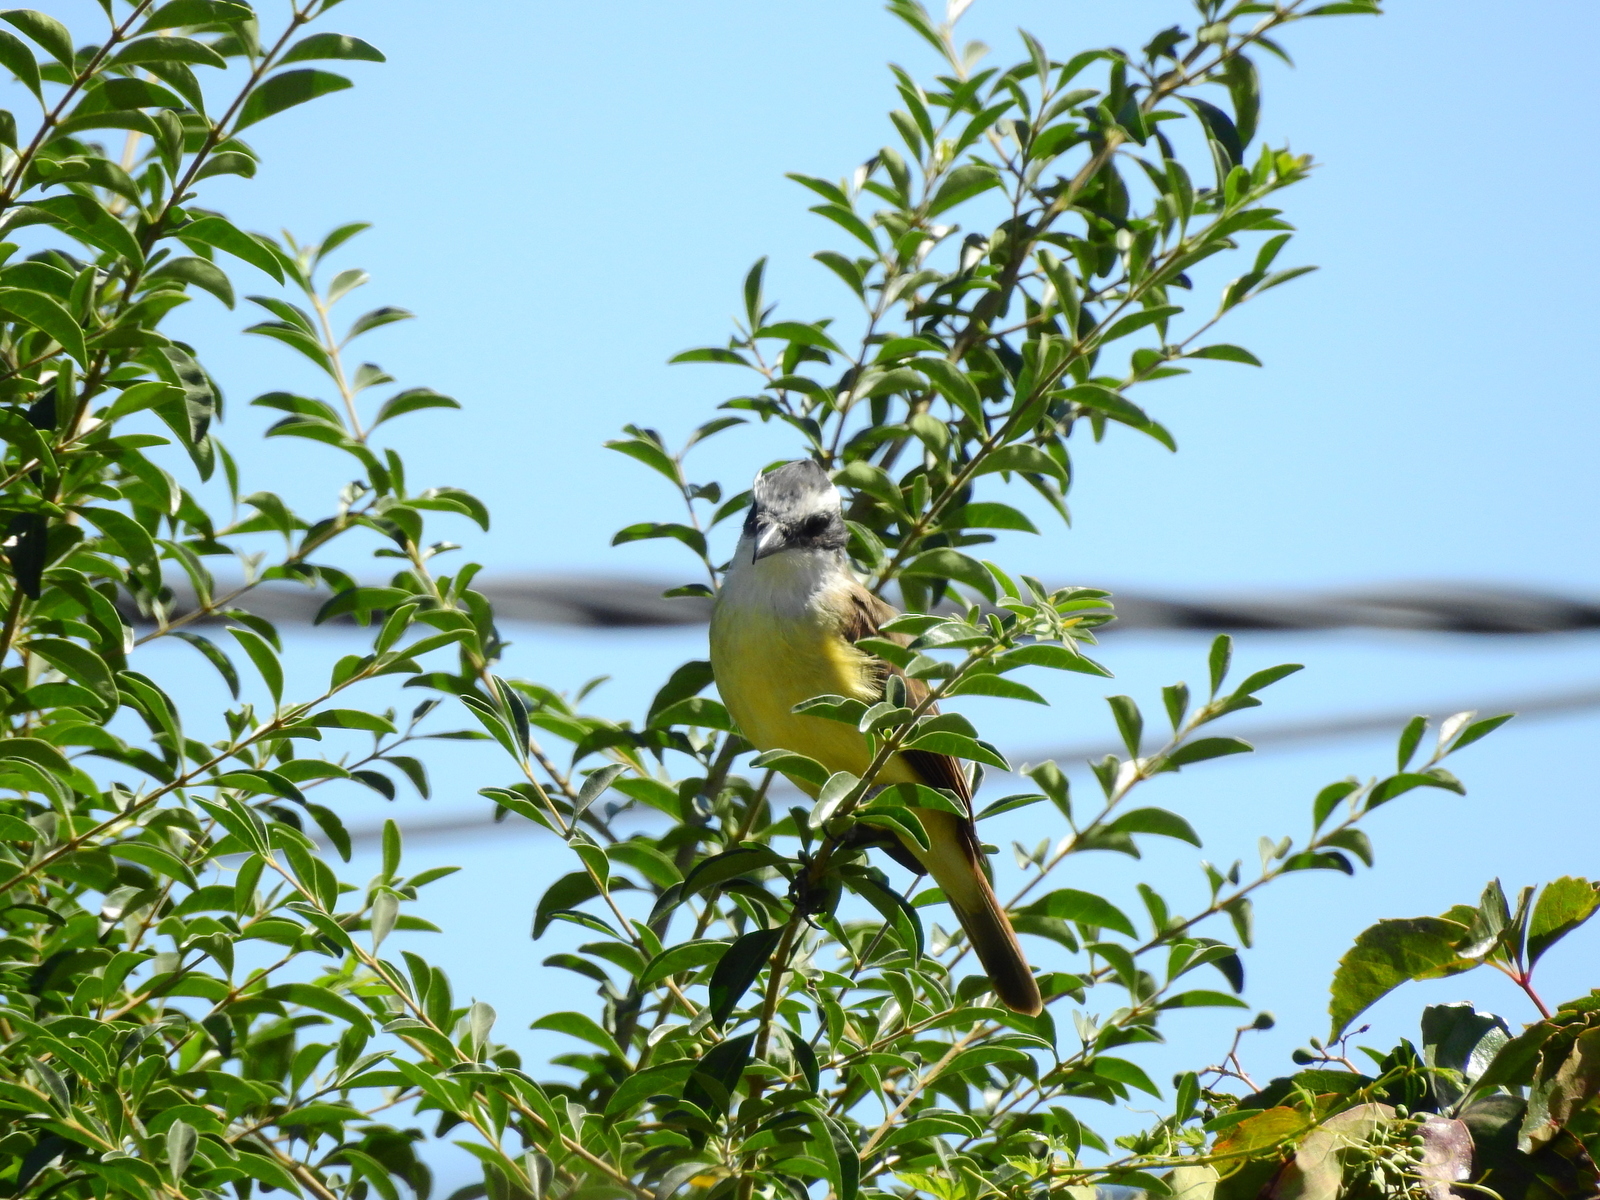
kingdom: Animalia
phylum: Chordata
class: Aves
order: Passeriformes
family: Tyrannidae
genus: Pitangus
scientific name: Pitangus sulphuratus
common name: Great kiskadee
